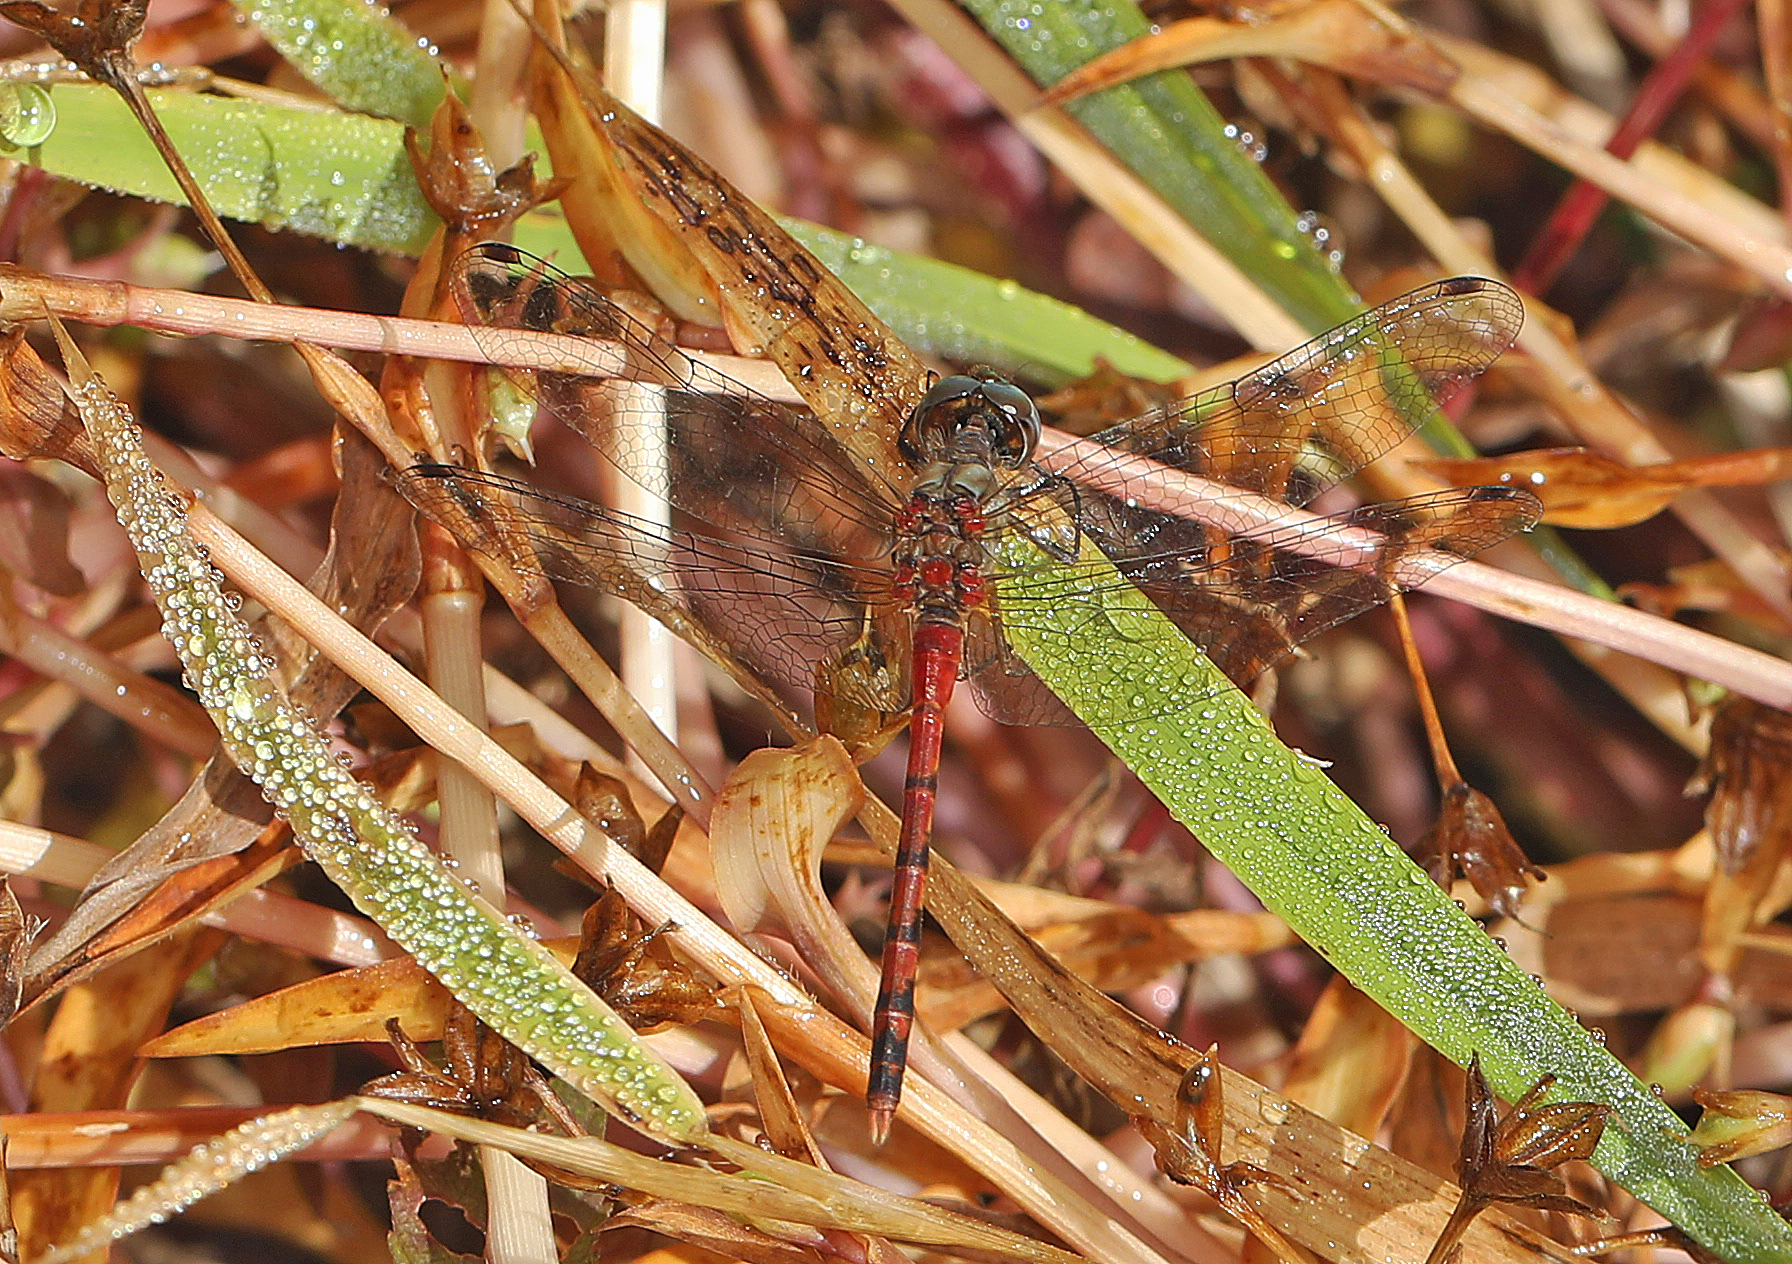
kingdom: Animalia
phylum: Arthropoda
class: Insecta
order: Odonata
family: Libellulidae
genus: Sympetrum
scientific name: Sympetrum ambiguum
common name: Blue-faced meadowhawk
